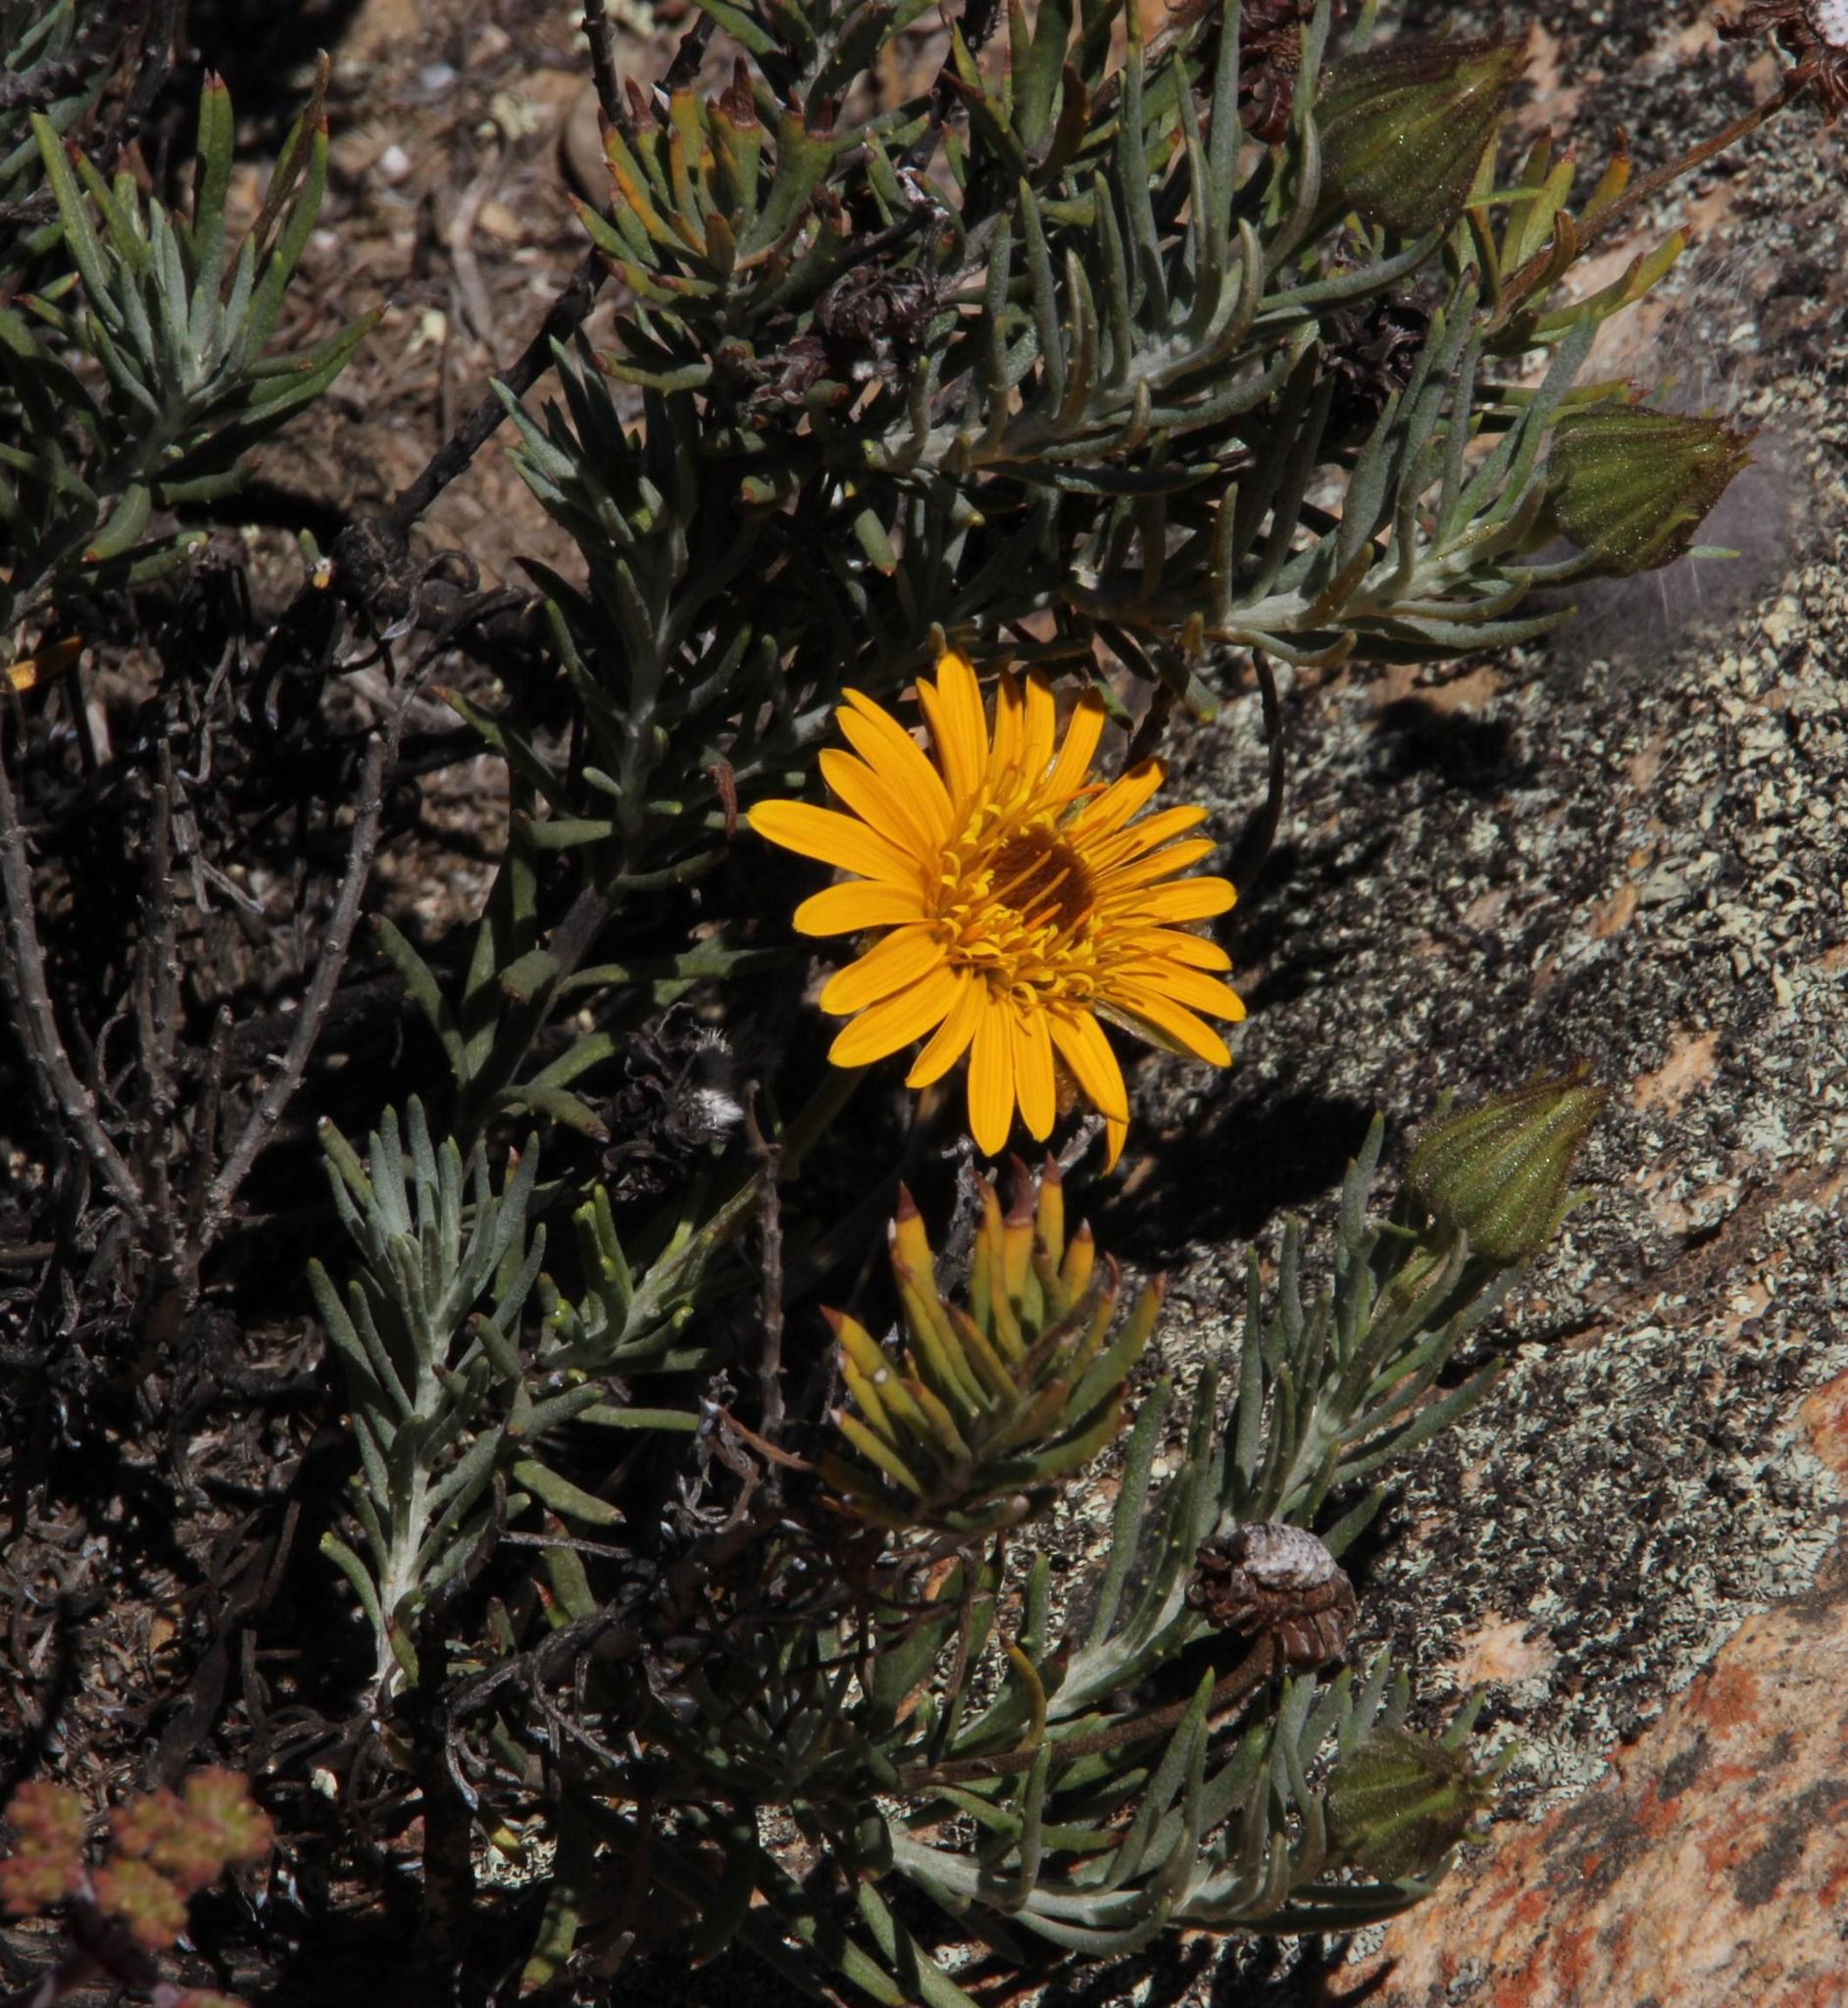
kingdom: Plantae
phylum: Tracheophyta
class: Magnoliopsida
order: Asterales
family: Asteraceae
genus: Heterolepis
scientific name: Heterolepis aliena
